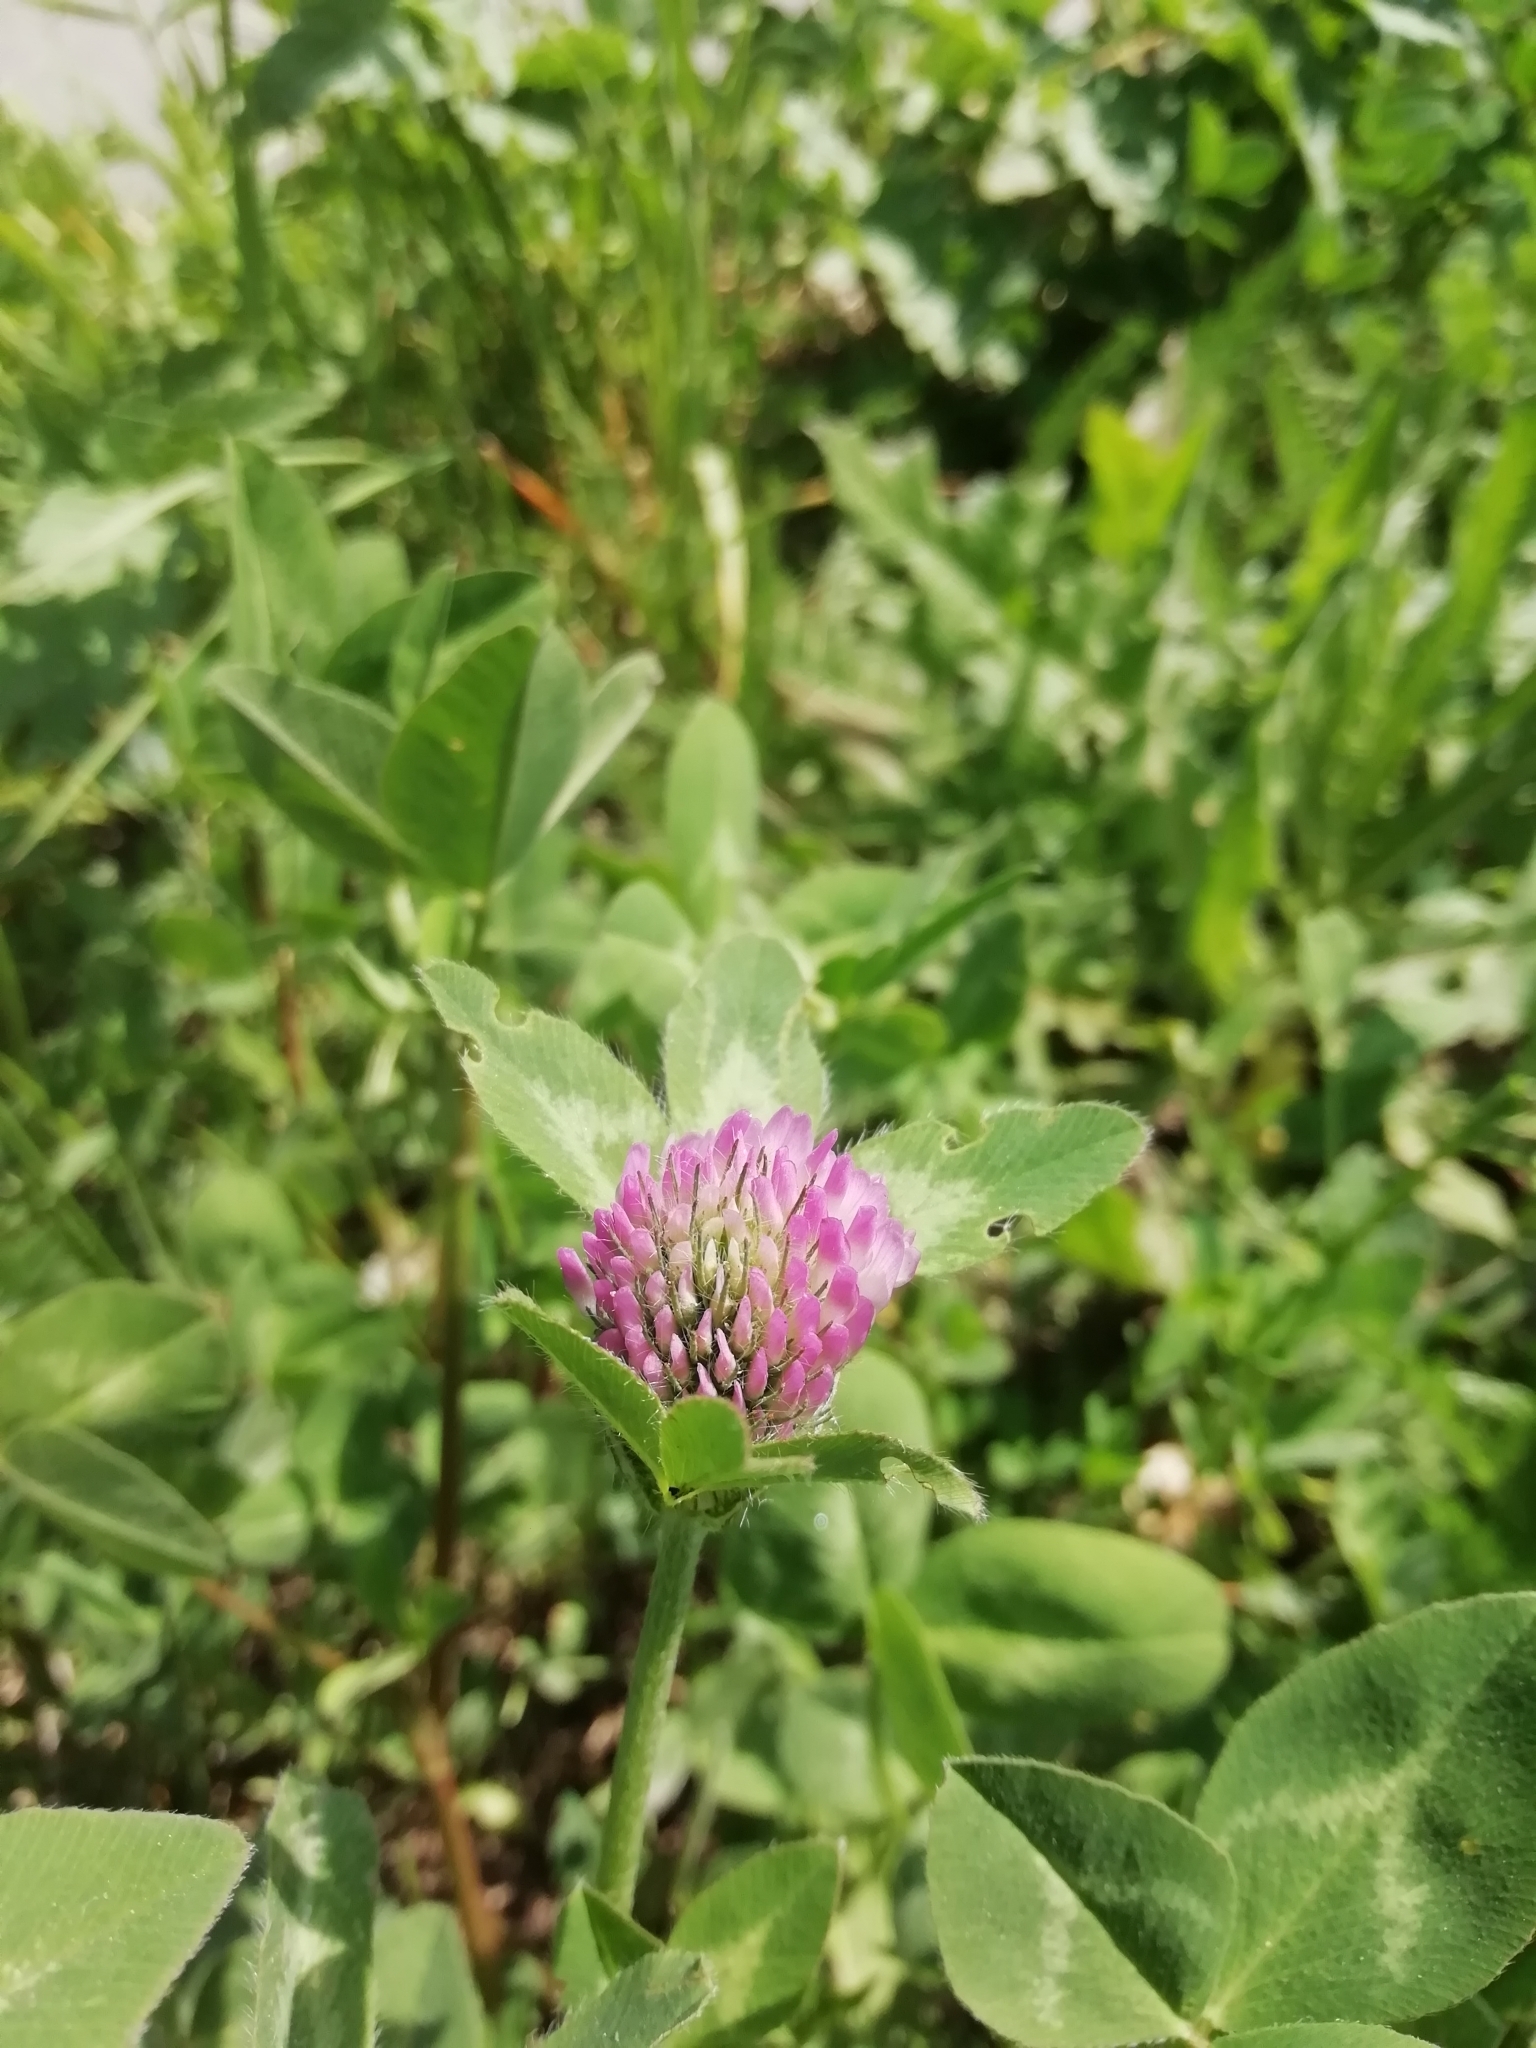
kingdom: Plantae
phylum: Tracheophyta
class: Magnoliopsida
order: Fabales
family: Fabaceae
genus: Trifolium
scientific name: Trifolium pratense
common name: Red clover
